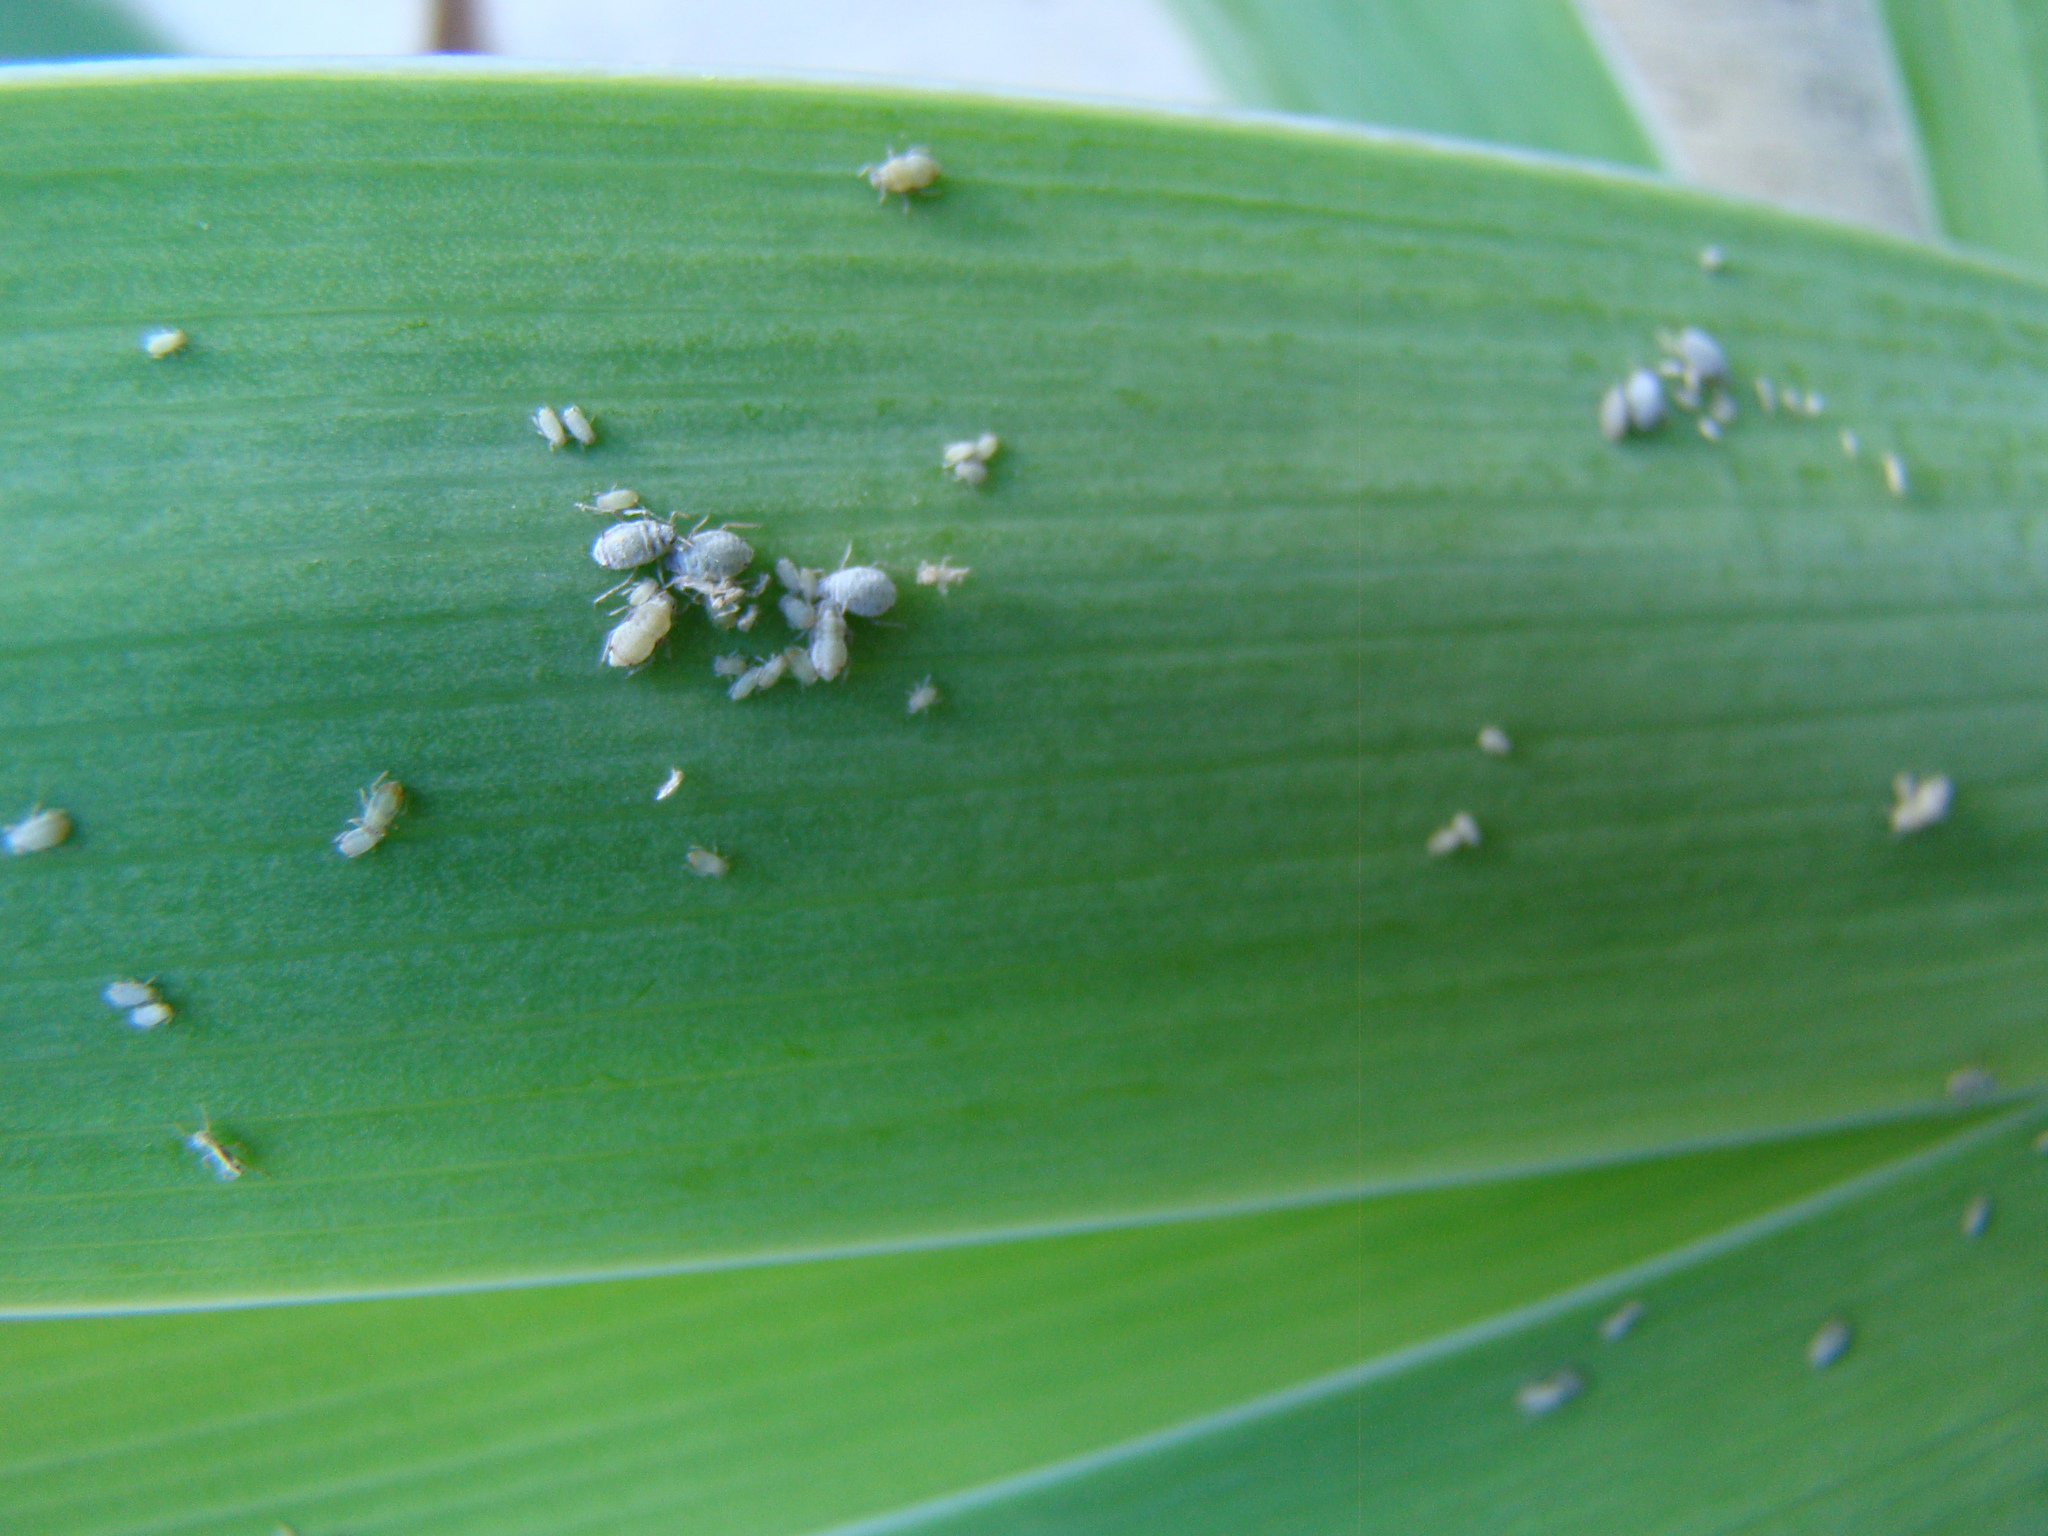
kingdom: Animalia
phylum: Arthropoda
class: Insecta
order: Hemiptera
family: Aphididae
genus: Dysaphis
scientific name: Dysaphis tulipae
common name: Tulip bulb aphid
